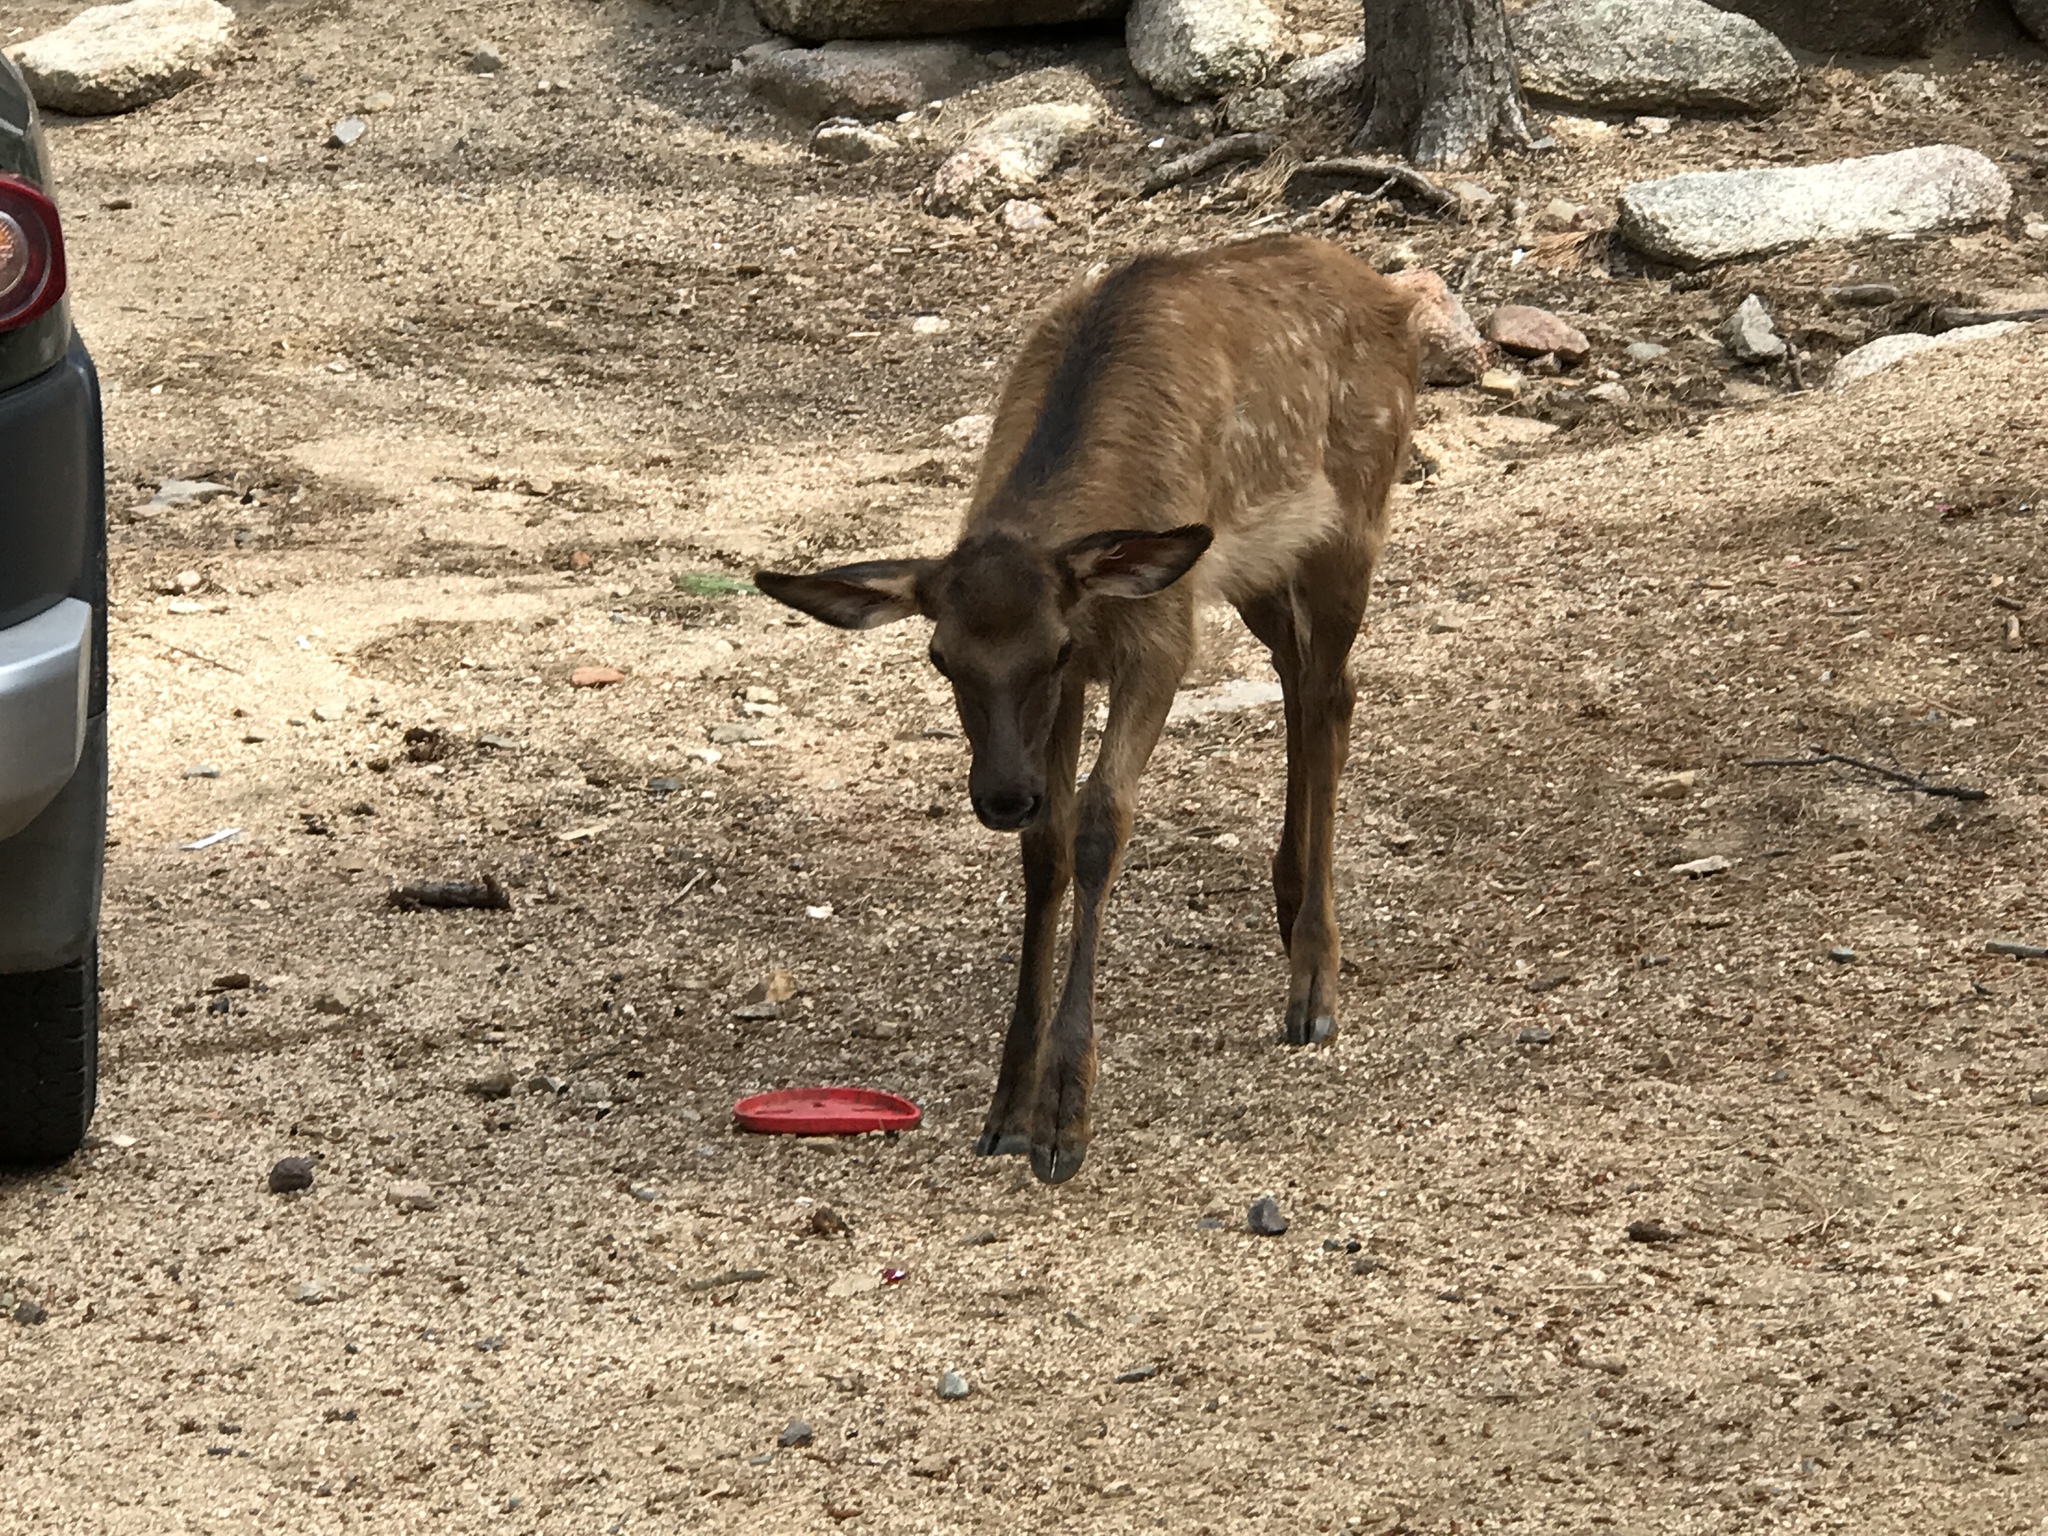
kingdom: Animalia
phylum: Chordata
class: Mammalia
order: Artiodactyla
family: Cervidae
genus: Cervus
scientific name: Cervus elaphus
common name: Red deer
